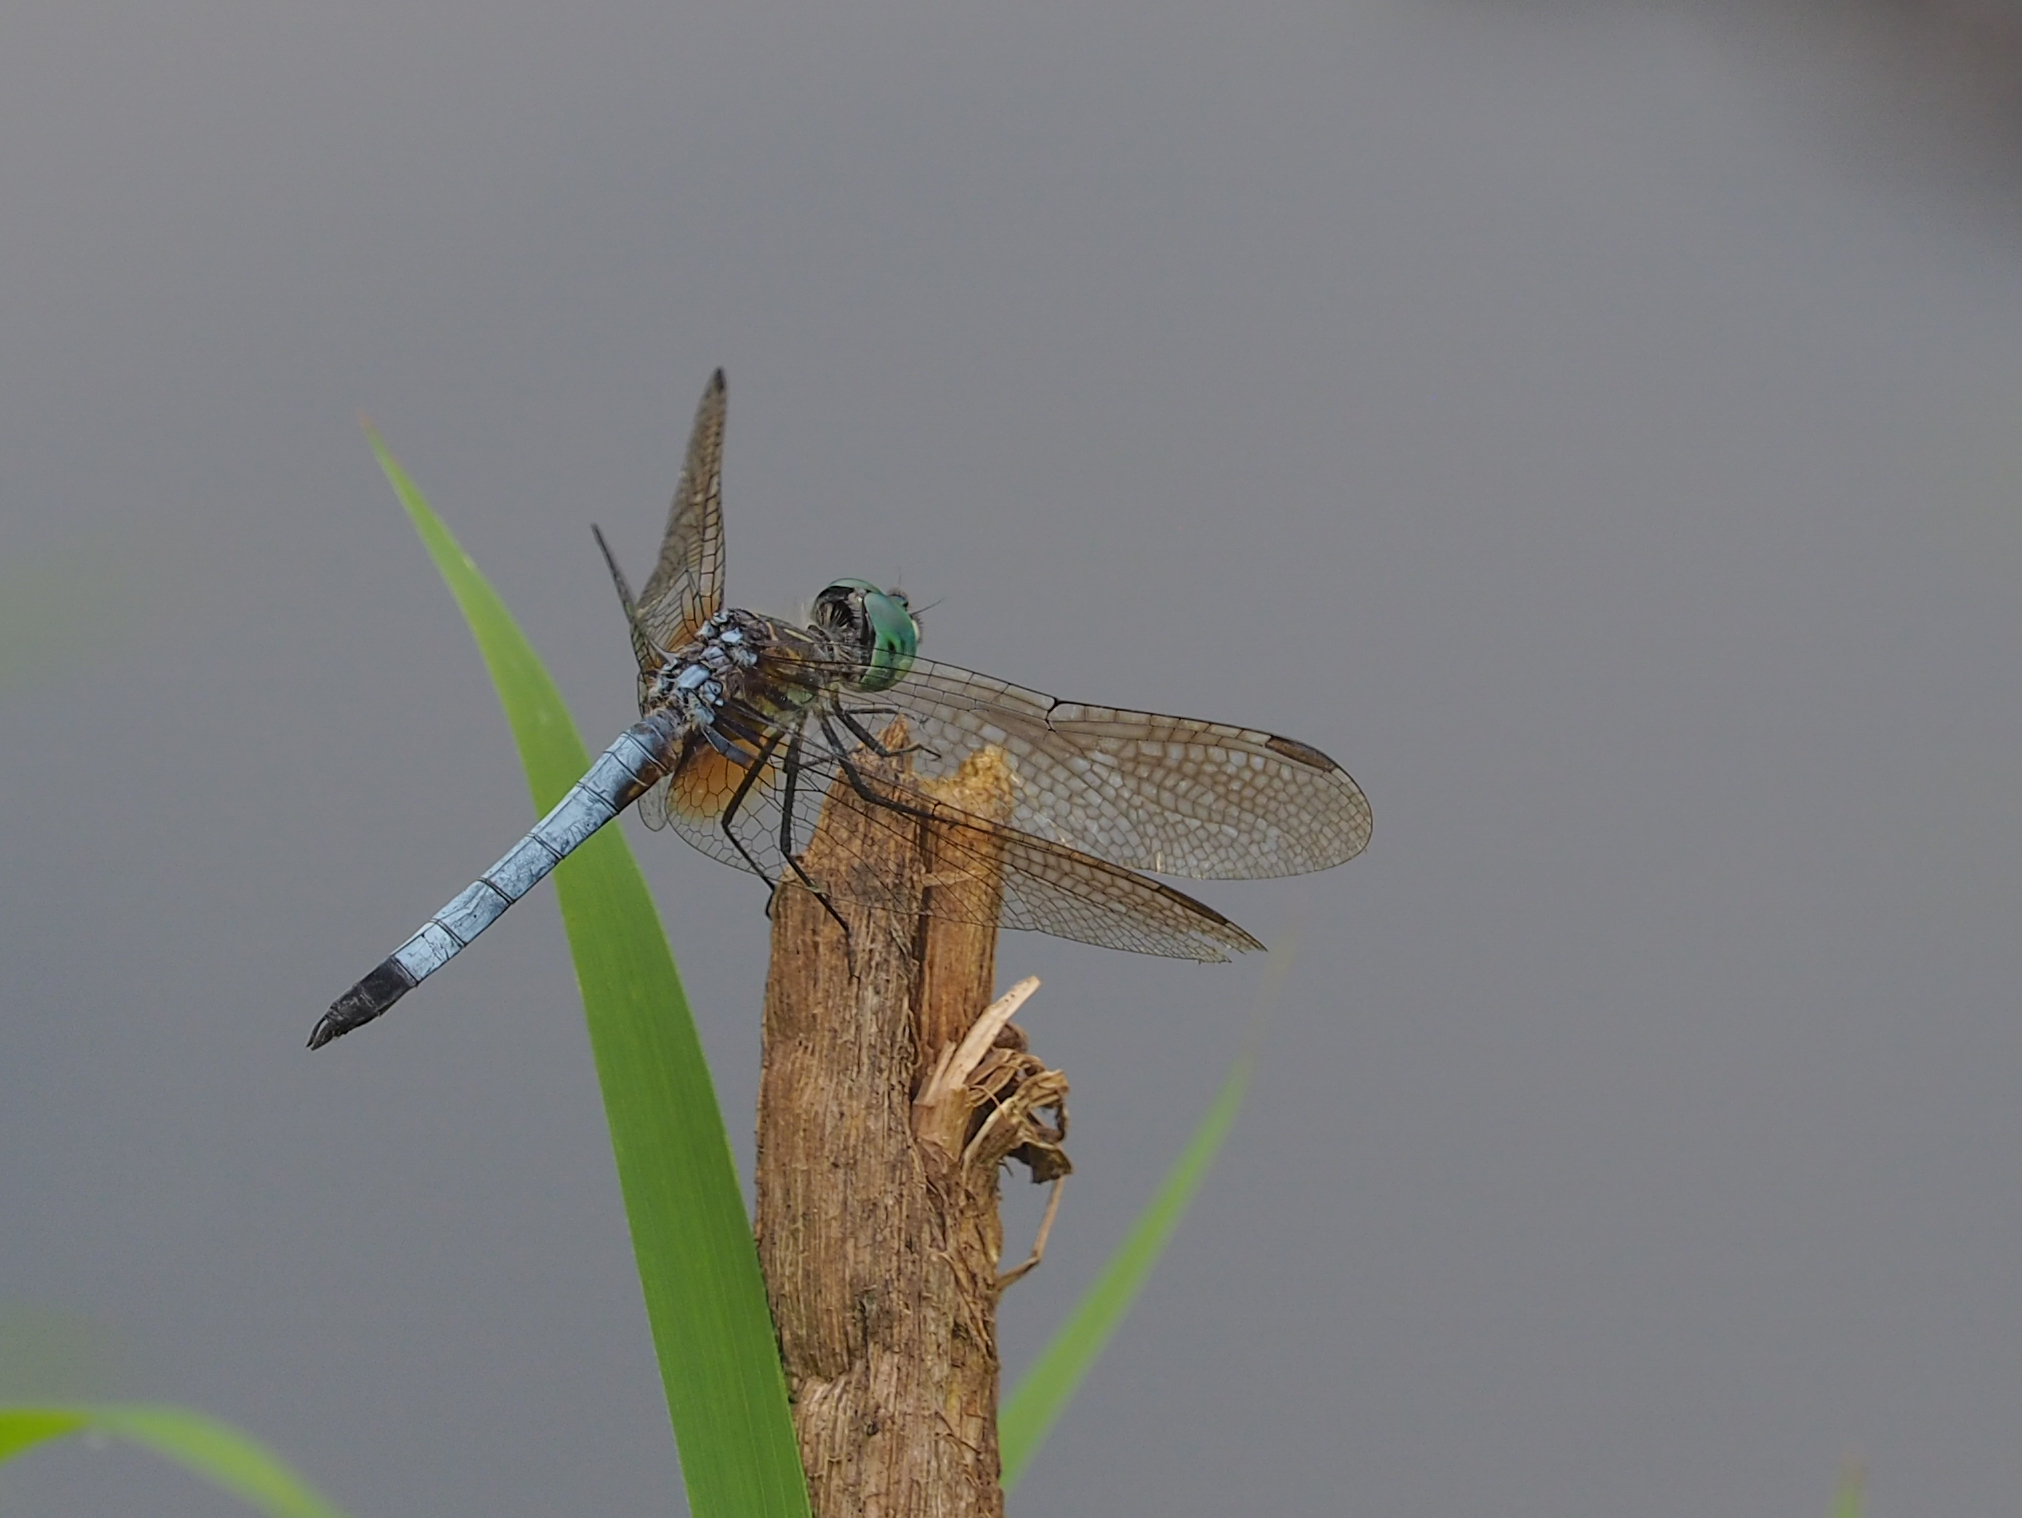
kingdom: Animalia
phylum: Arthropoda
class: Insecta
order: Odonata
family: Libellulidae
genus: Pachydiplax
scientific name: Pachydiplax longipennis
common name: Blue dasher
